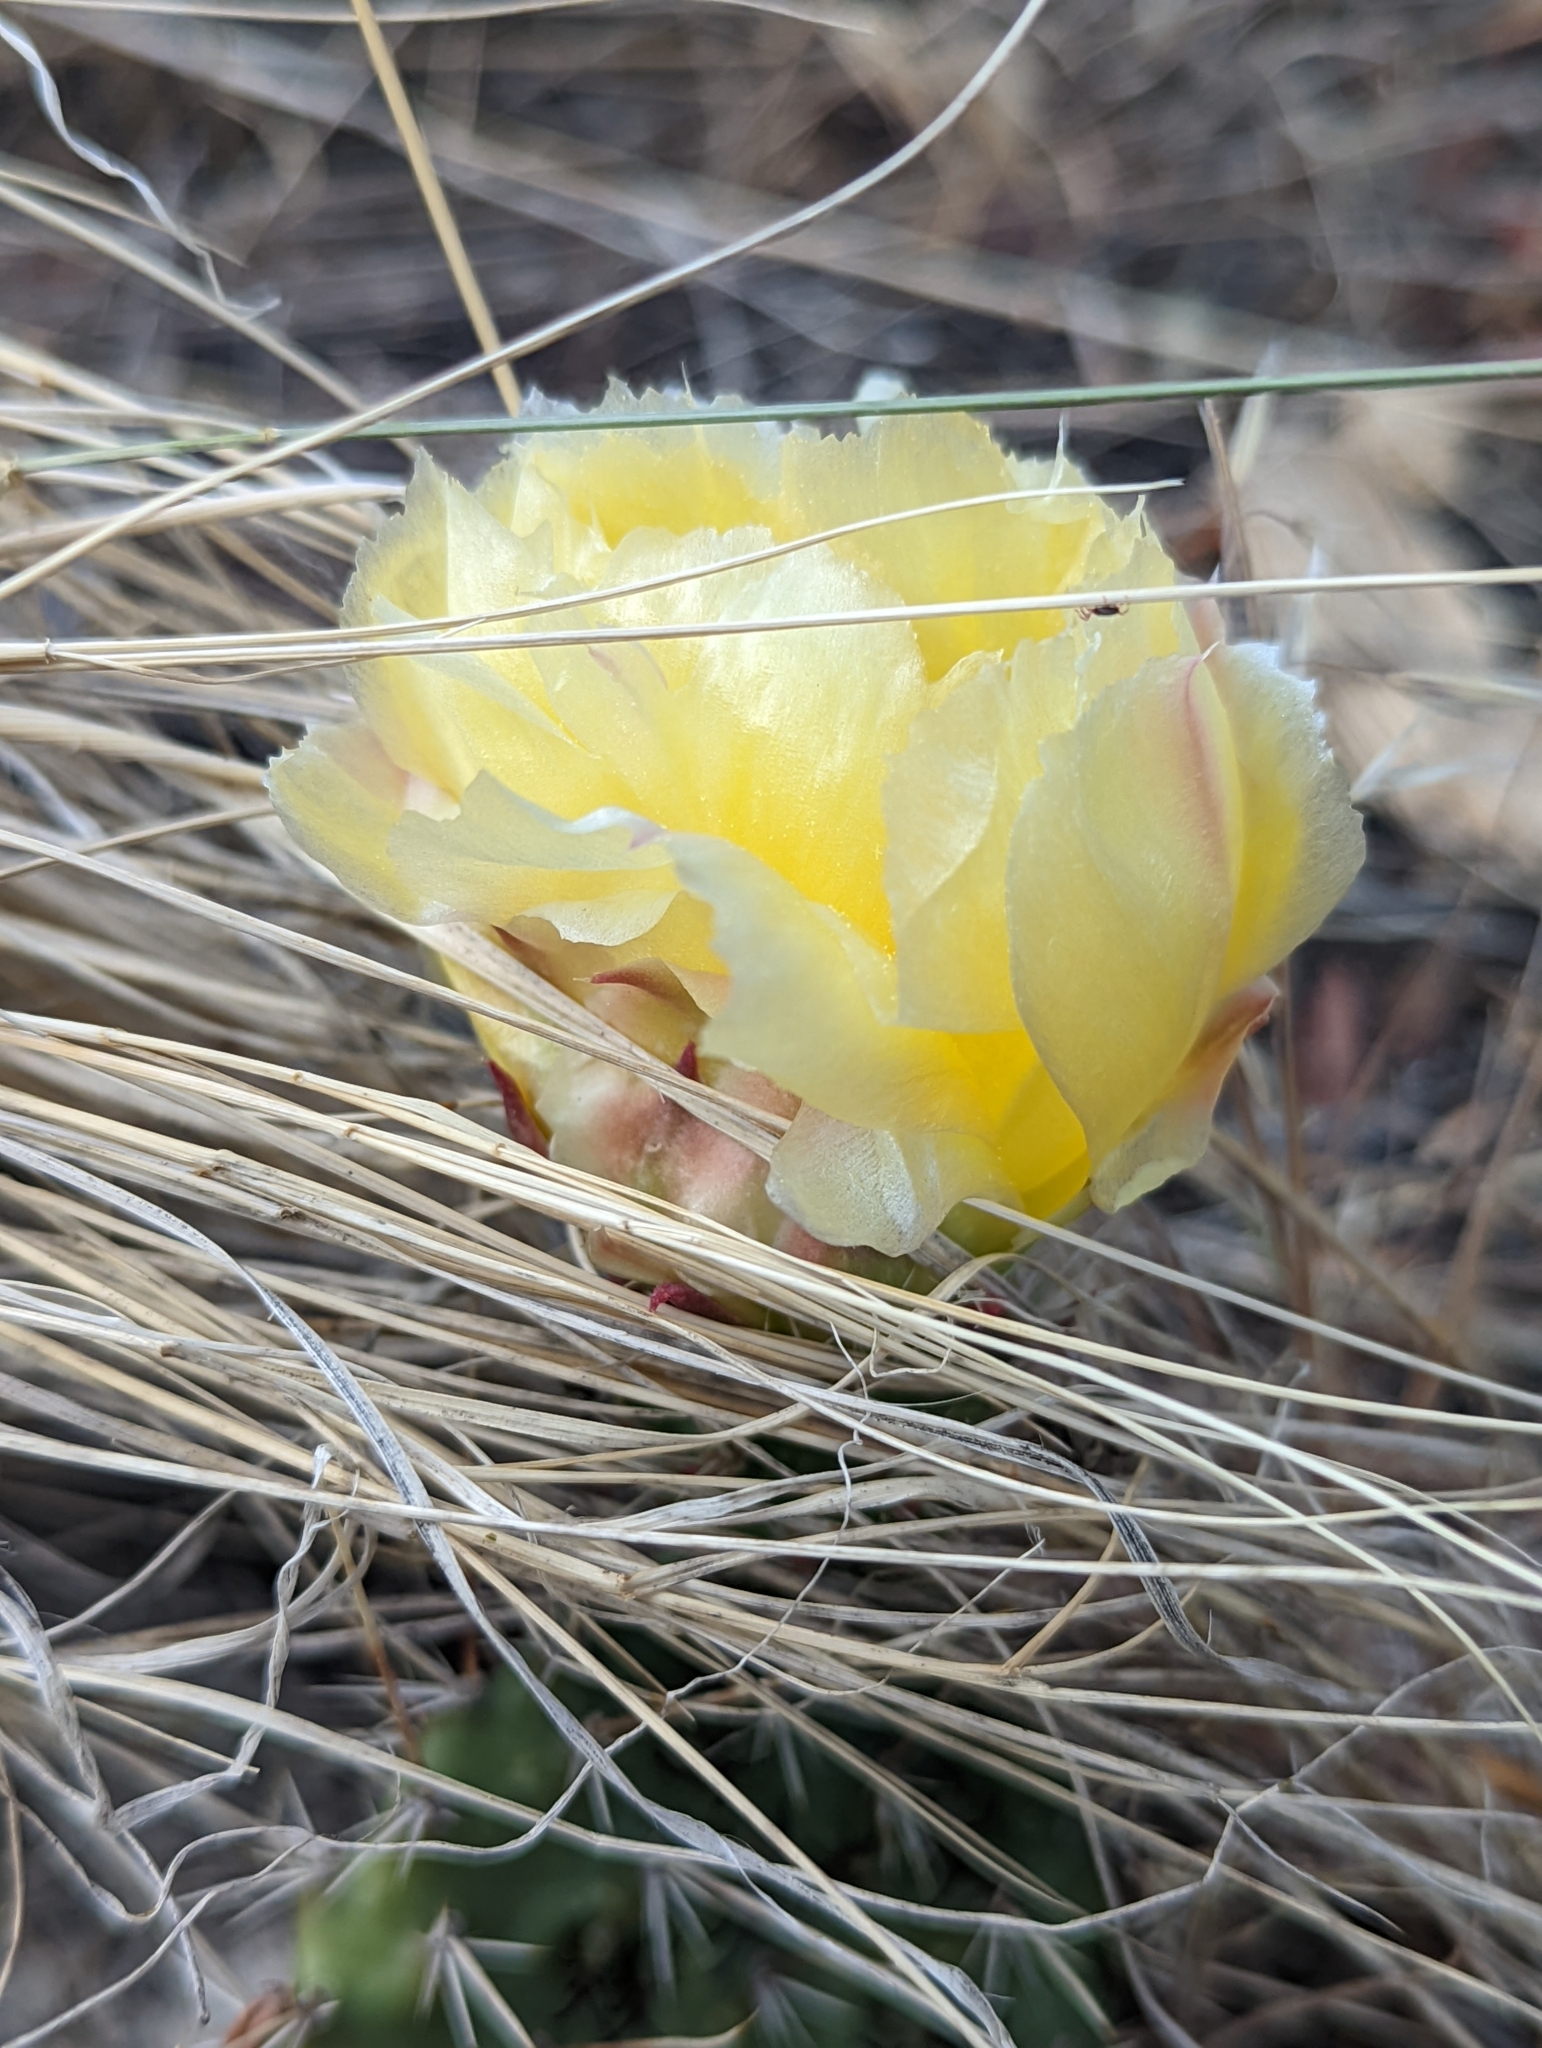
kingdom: Plantae
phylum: Tracheophyta
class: Magnoliopsida
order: Caryophyllales
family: Cactaceae
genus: Opuntia
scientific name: Opuntia polyacantha
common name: Plains prickly-pear
